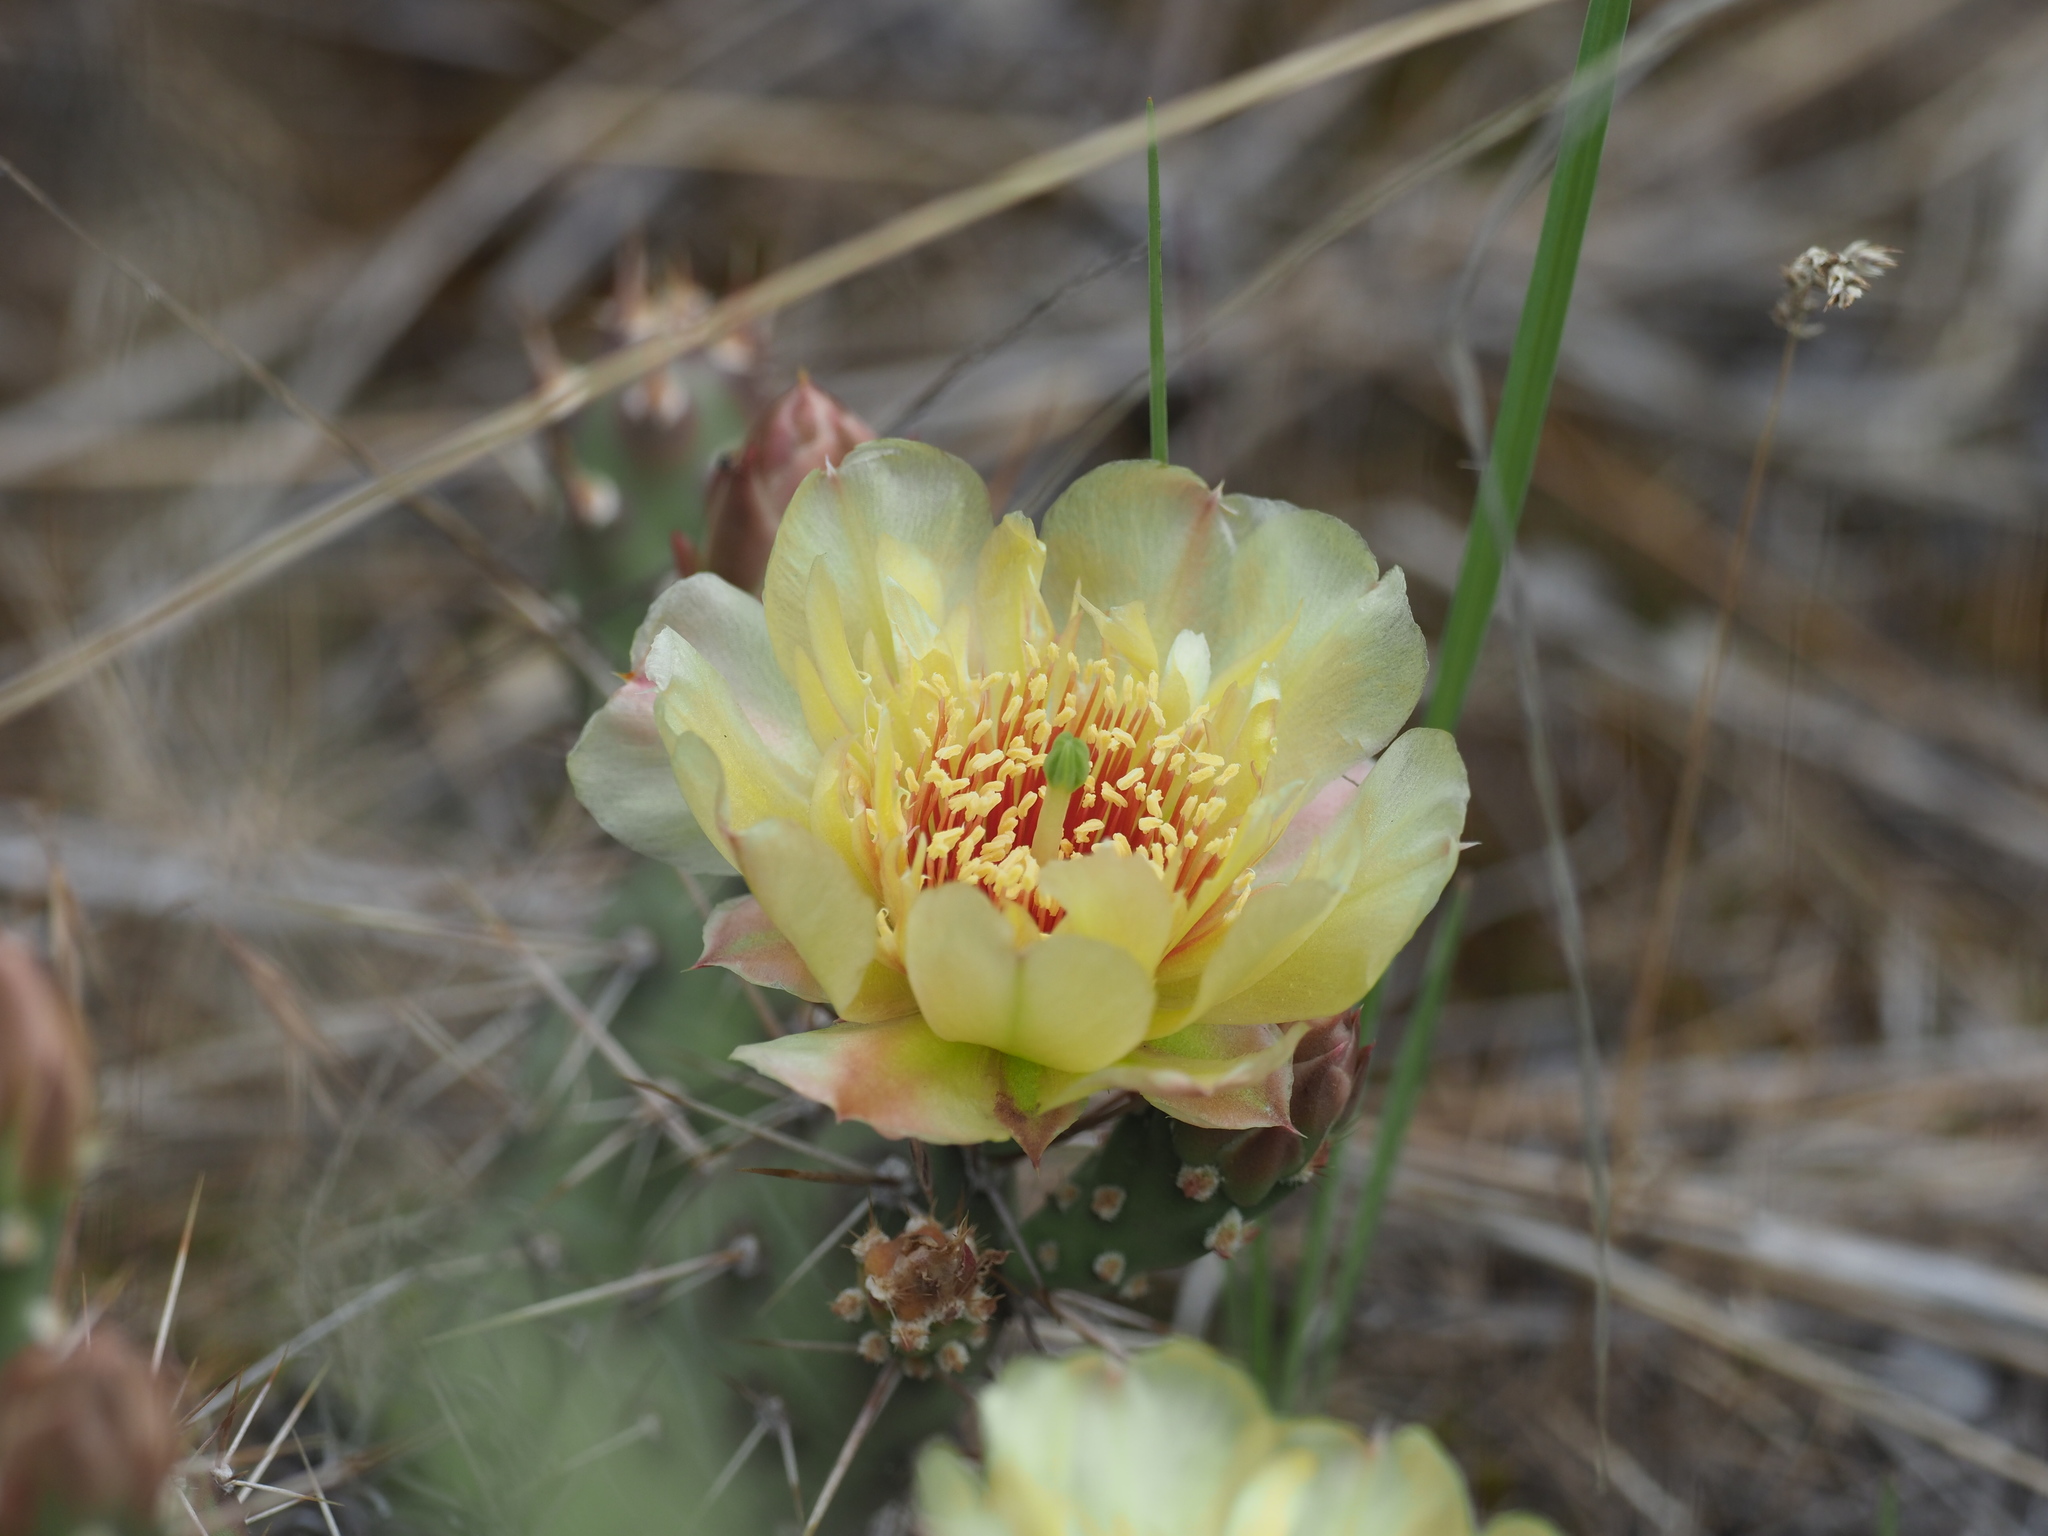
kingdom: Plantae
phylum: Tracheophyta
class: Magnoliopsida
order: Caryophyllales
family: Cactaceae
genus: Opuntia
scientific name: Opuntia fragilis
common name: Brittle cactus
